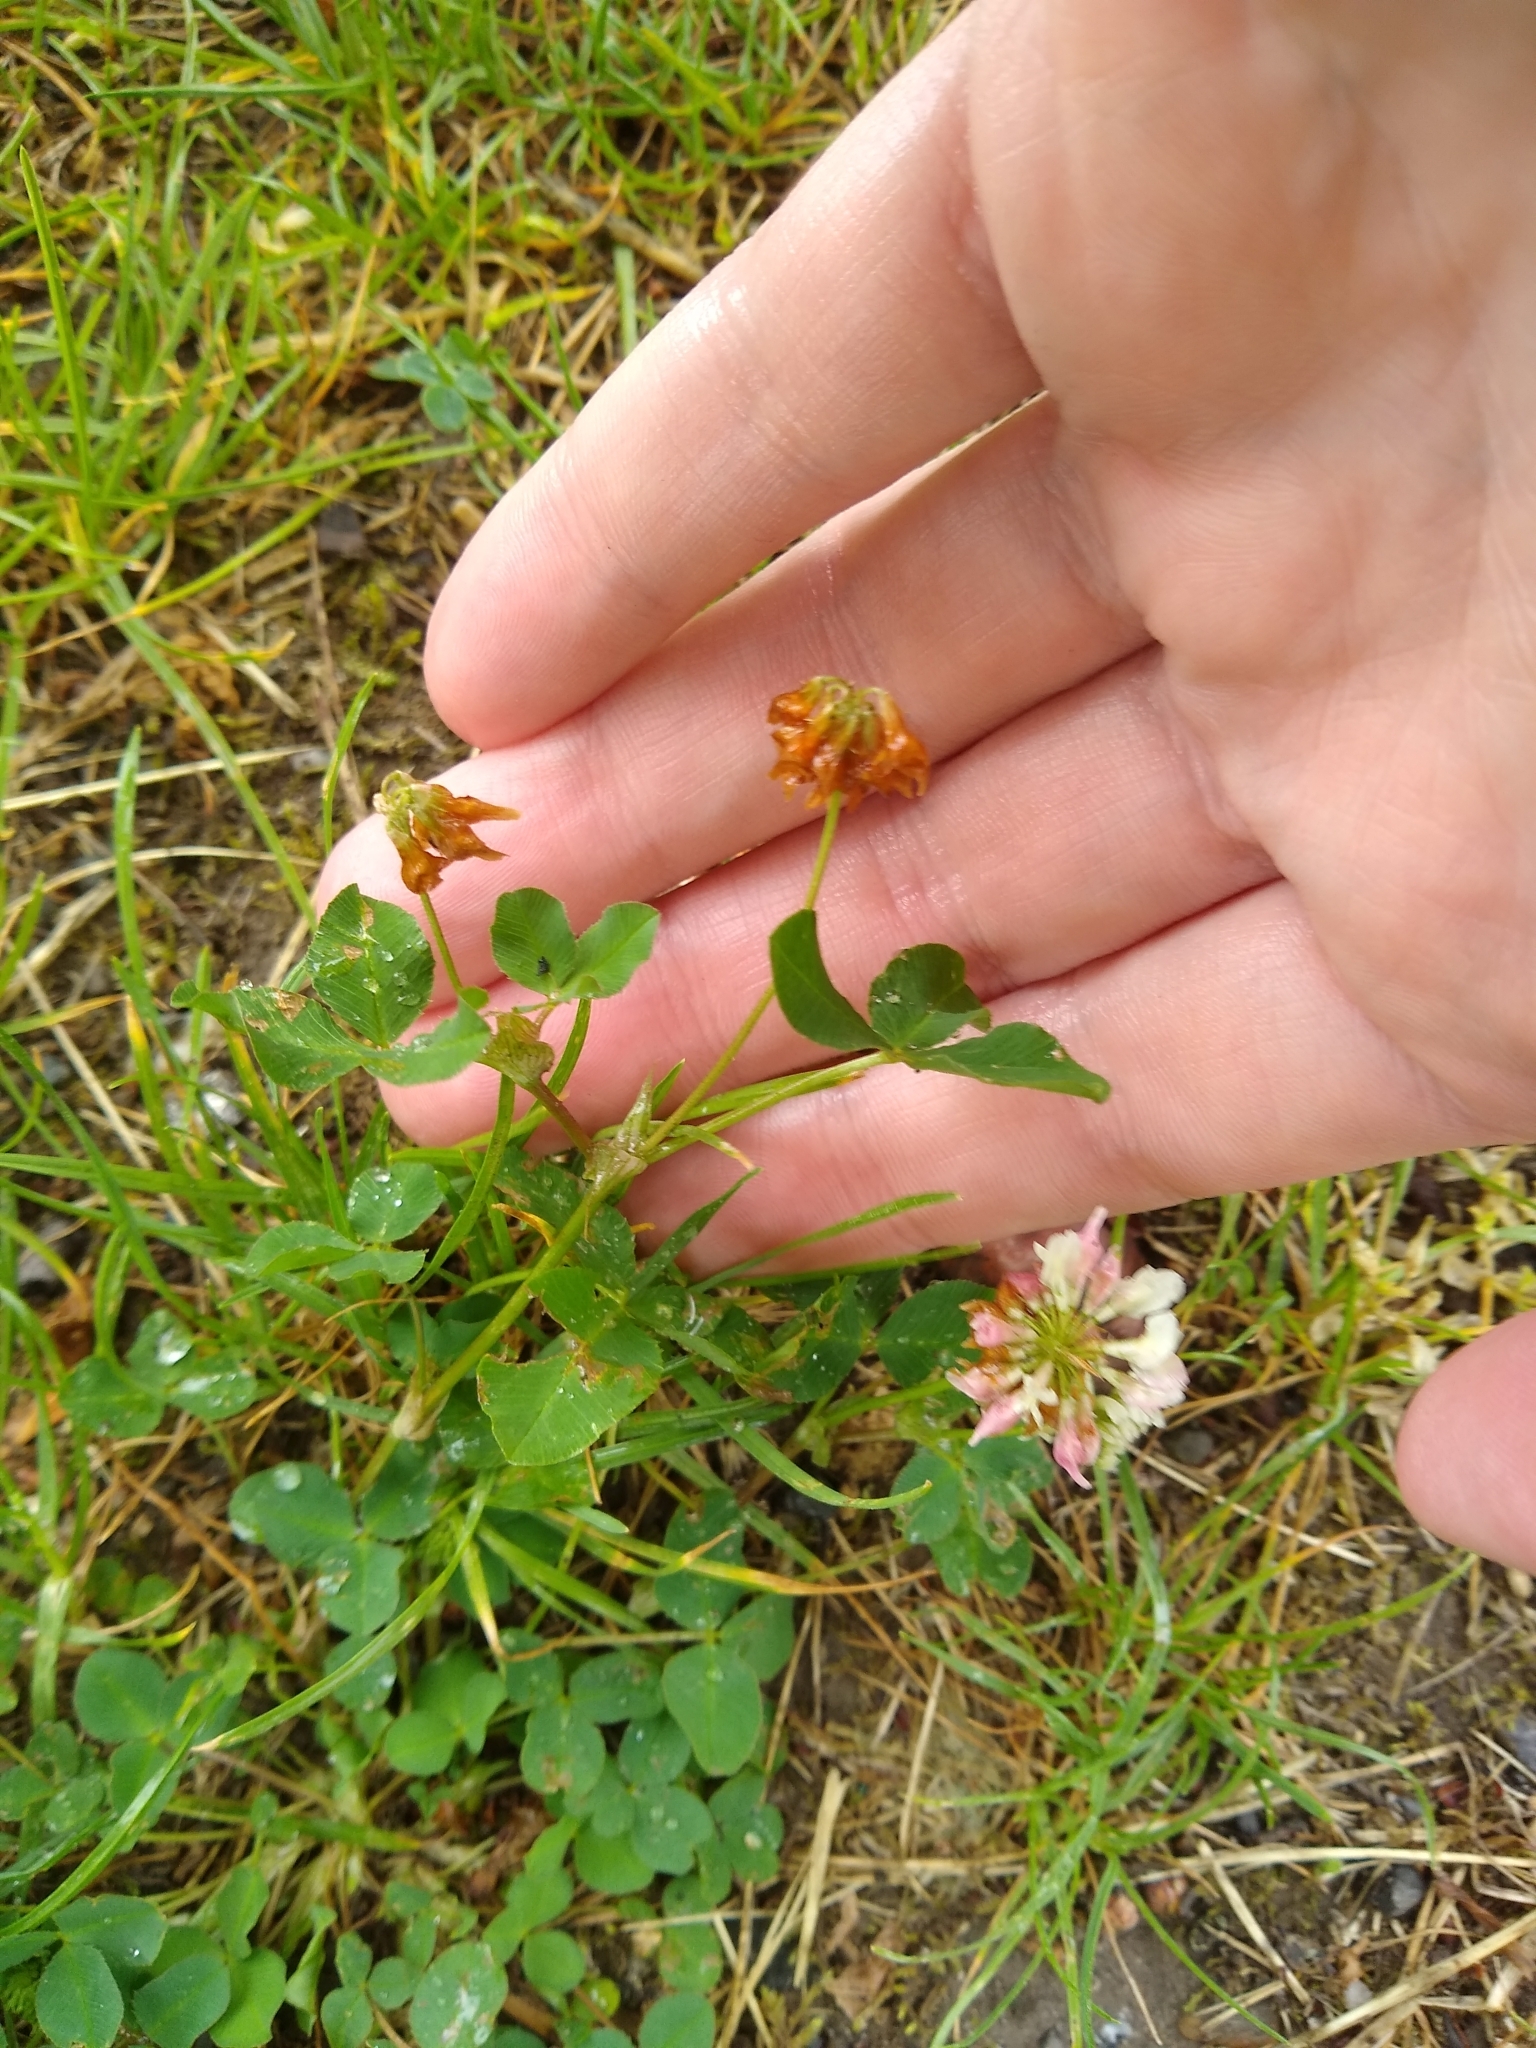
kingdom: Plantae
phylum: Tracheophyta
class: Magnoliopsida
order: Fabales
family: Fabaceae
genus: Trifolium
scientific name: Trifolium hybridum
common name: Alsike clover
